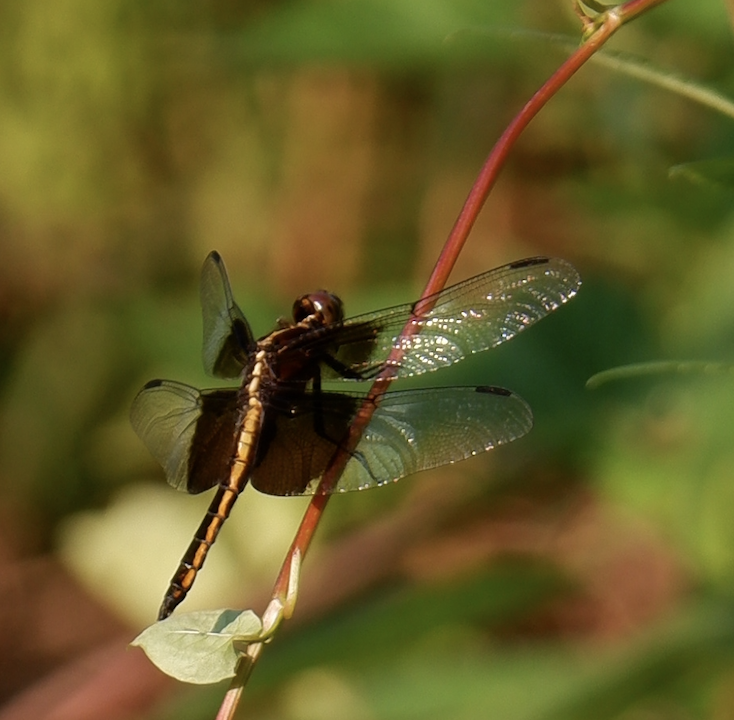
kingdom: Animalia
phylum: Arthropoda
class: Insecta
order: Odonata
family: Libellulidae
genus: Libellula
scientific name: Libellula luctuosa
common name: Widow skimmer
